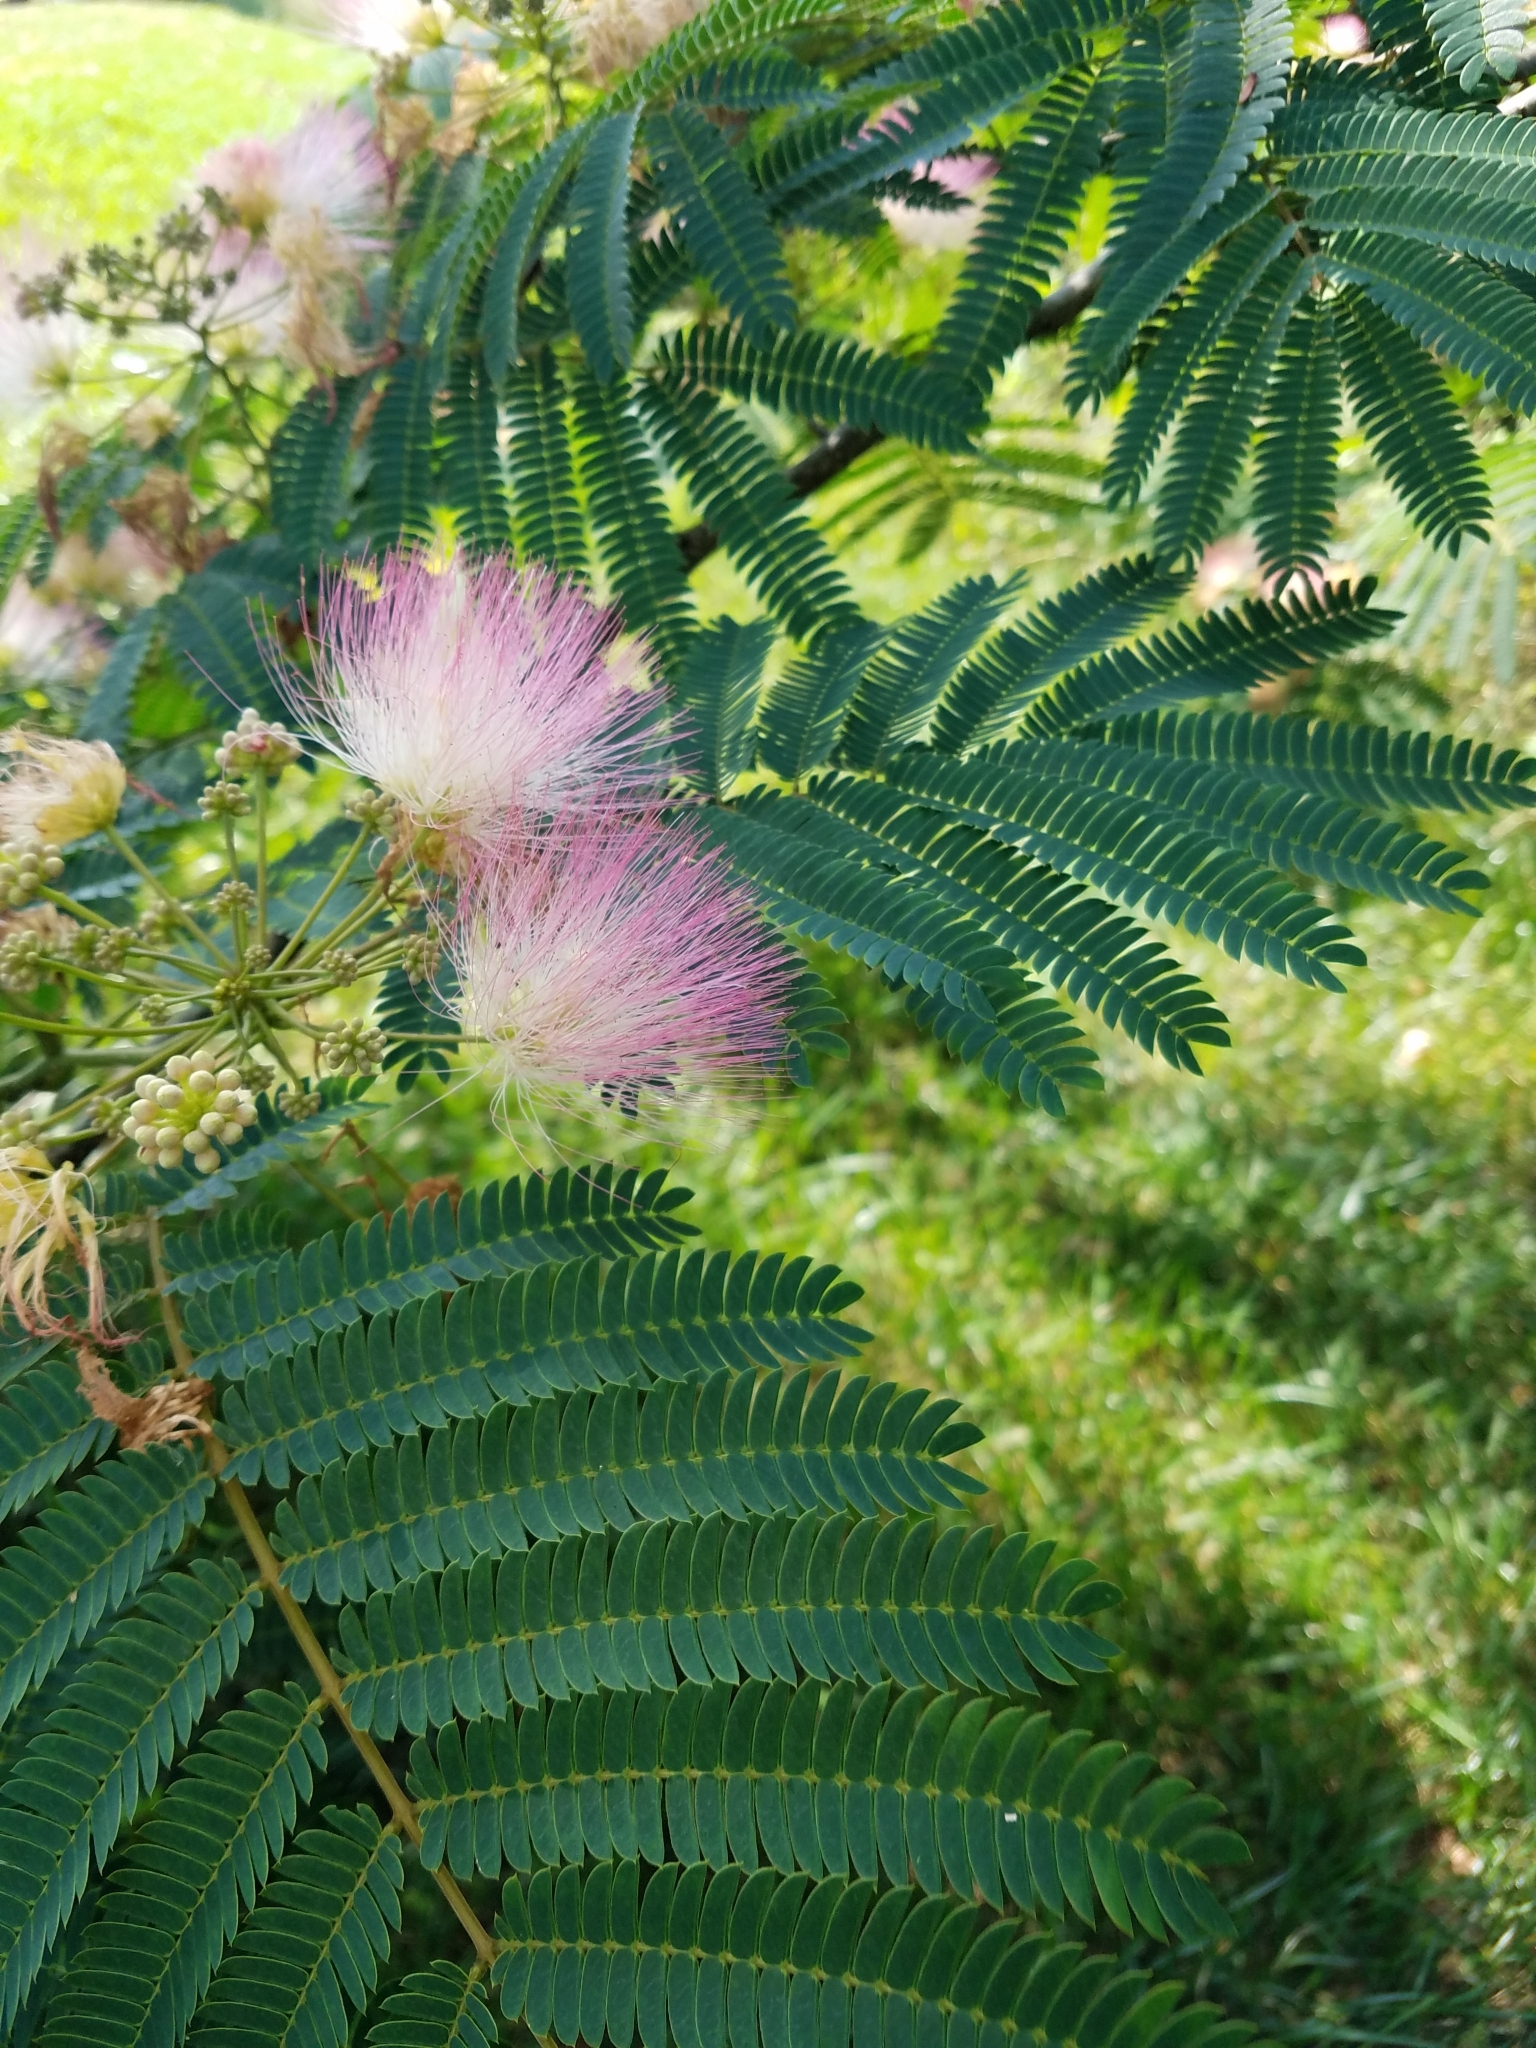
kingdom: Plantae
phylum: Tracheophyta
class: Magnoliopsida
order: Fabales
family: Fabaceae
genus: Albizia
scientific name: Albizia julibrissin
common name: Silktree
